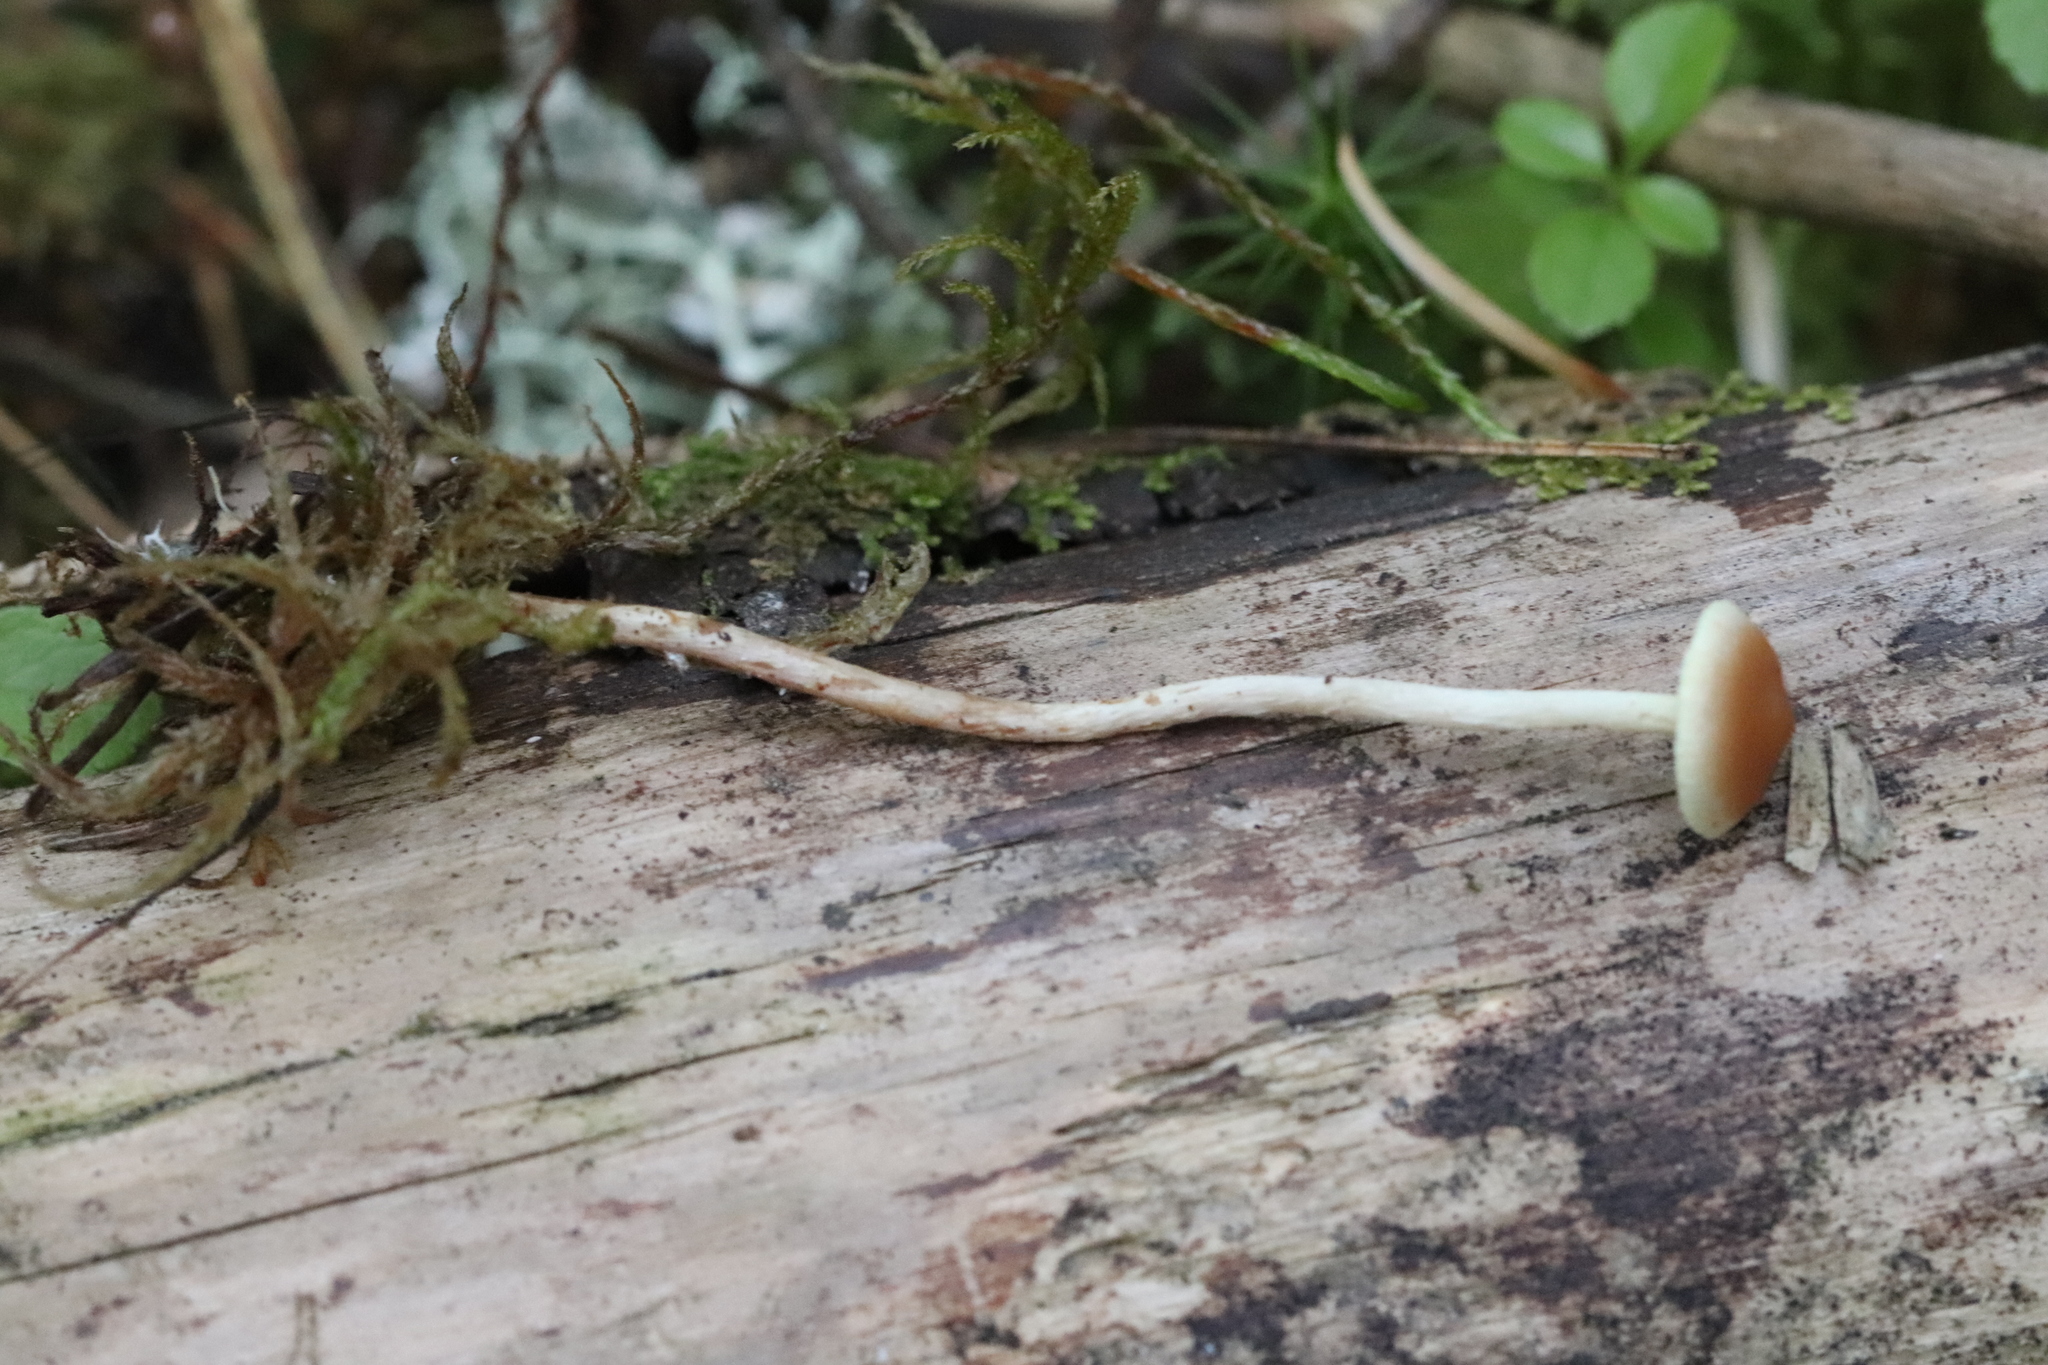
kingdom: Fungi
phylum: Basidiomycota
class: Agaricomycetes
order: Agaricales
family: Strophariaceae
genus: Hypholoma
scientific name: Hypholoma polytrichi
